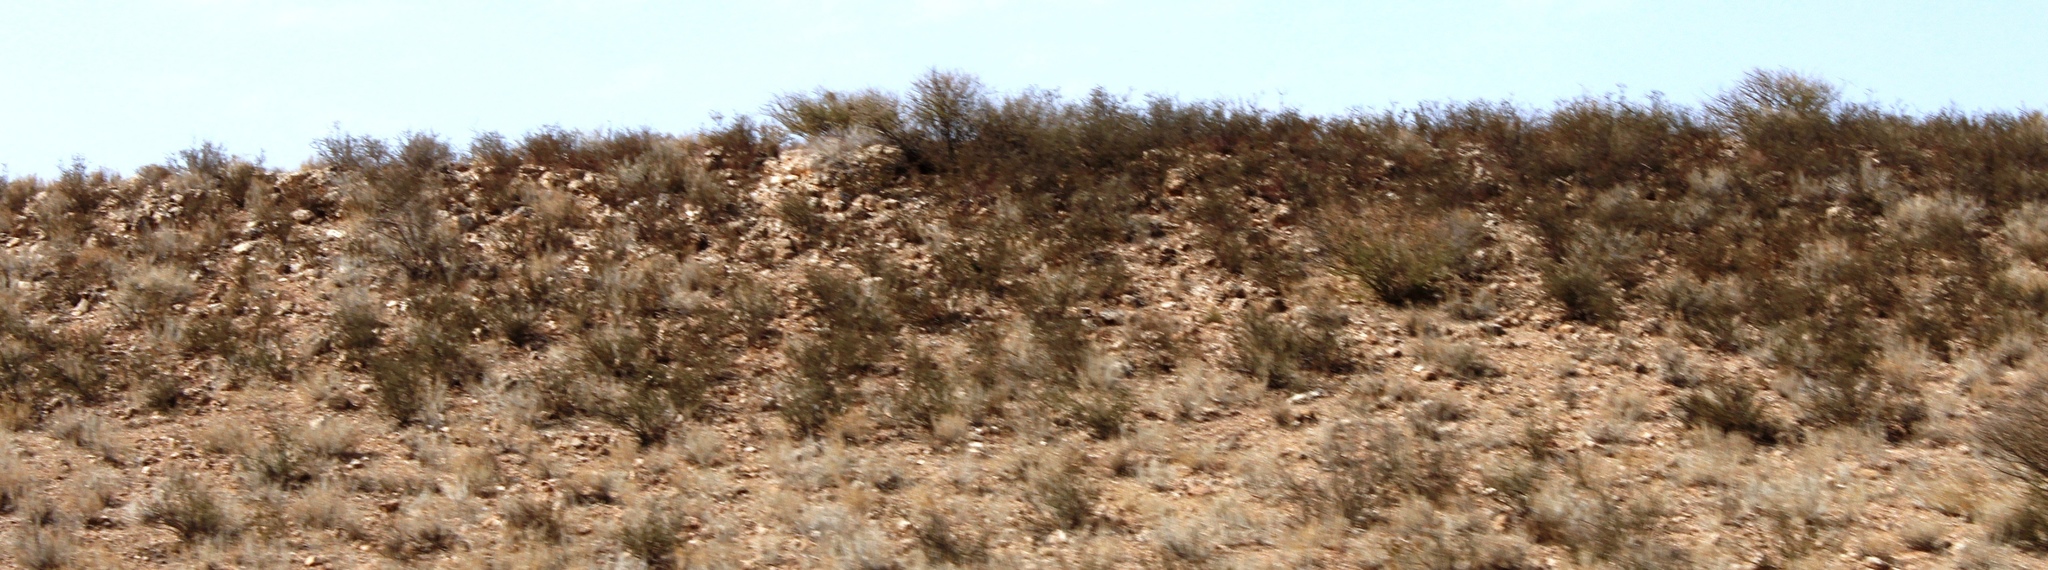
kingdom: Plantae
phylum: Tracheophyta
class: Magnoliopsida
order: Lamiales
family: Bignoniaceae
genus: Rhigozum
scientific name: Rhigozum trichotomum
